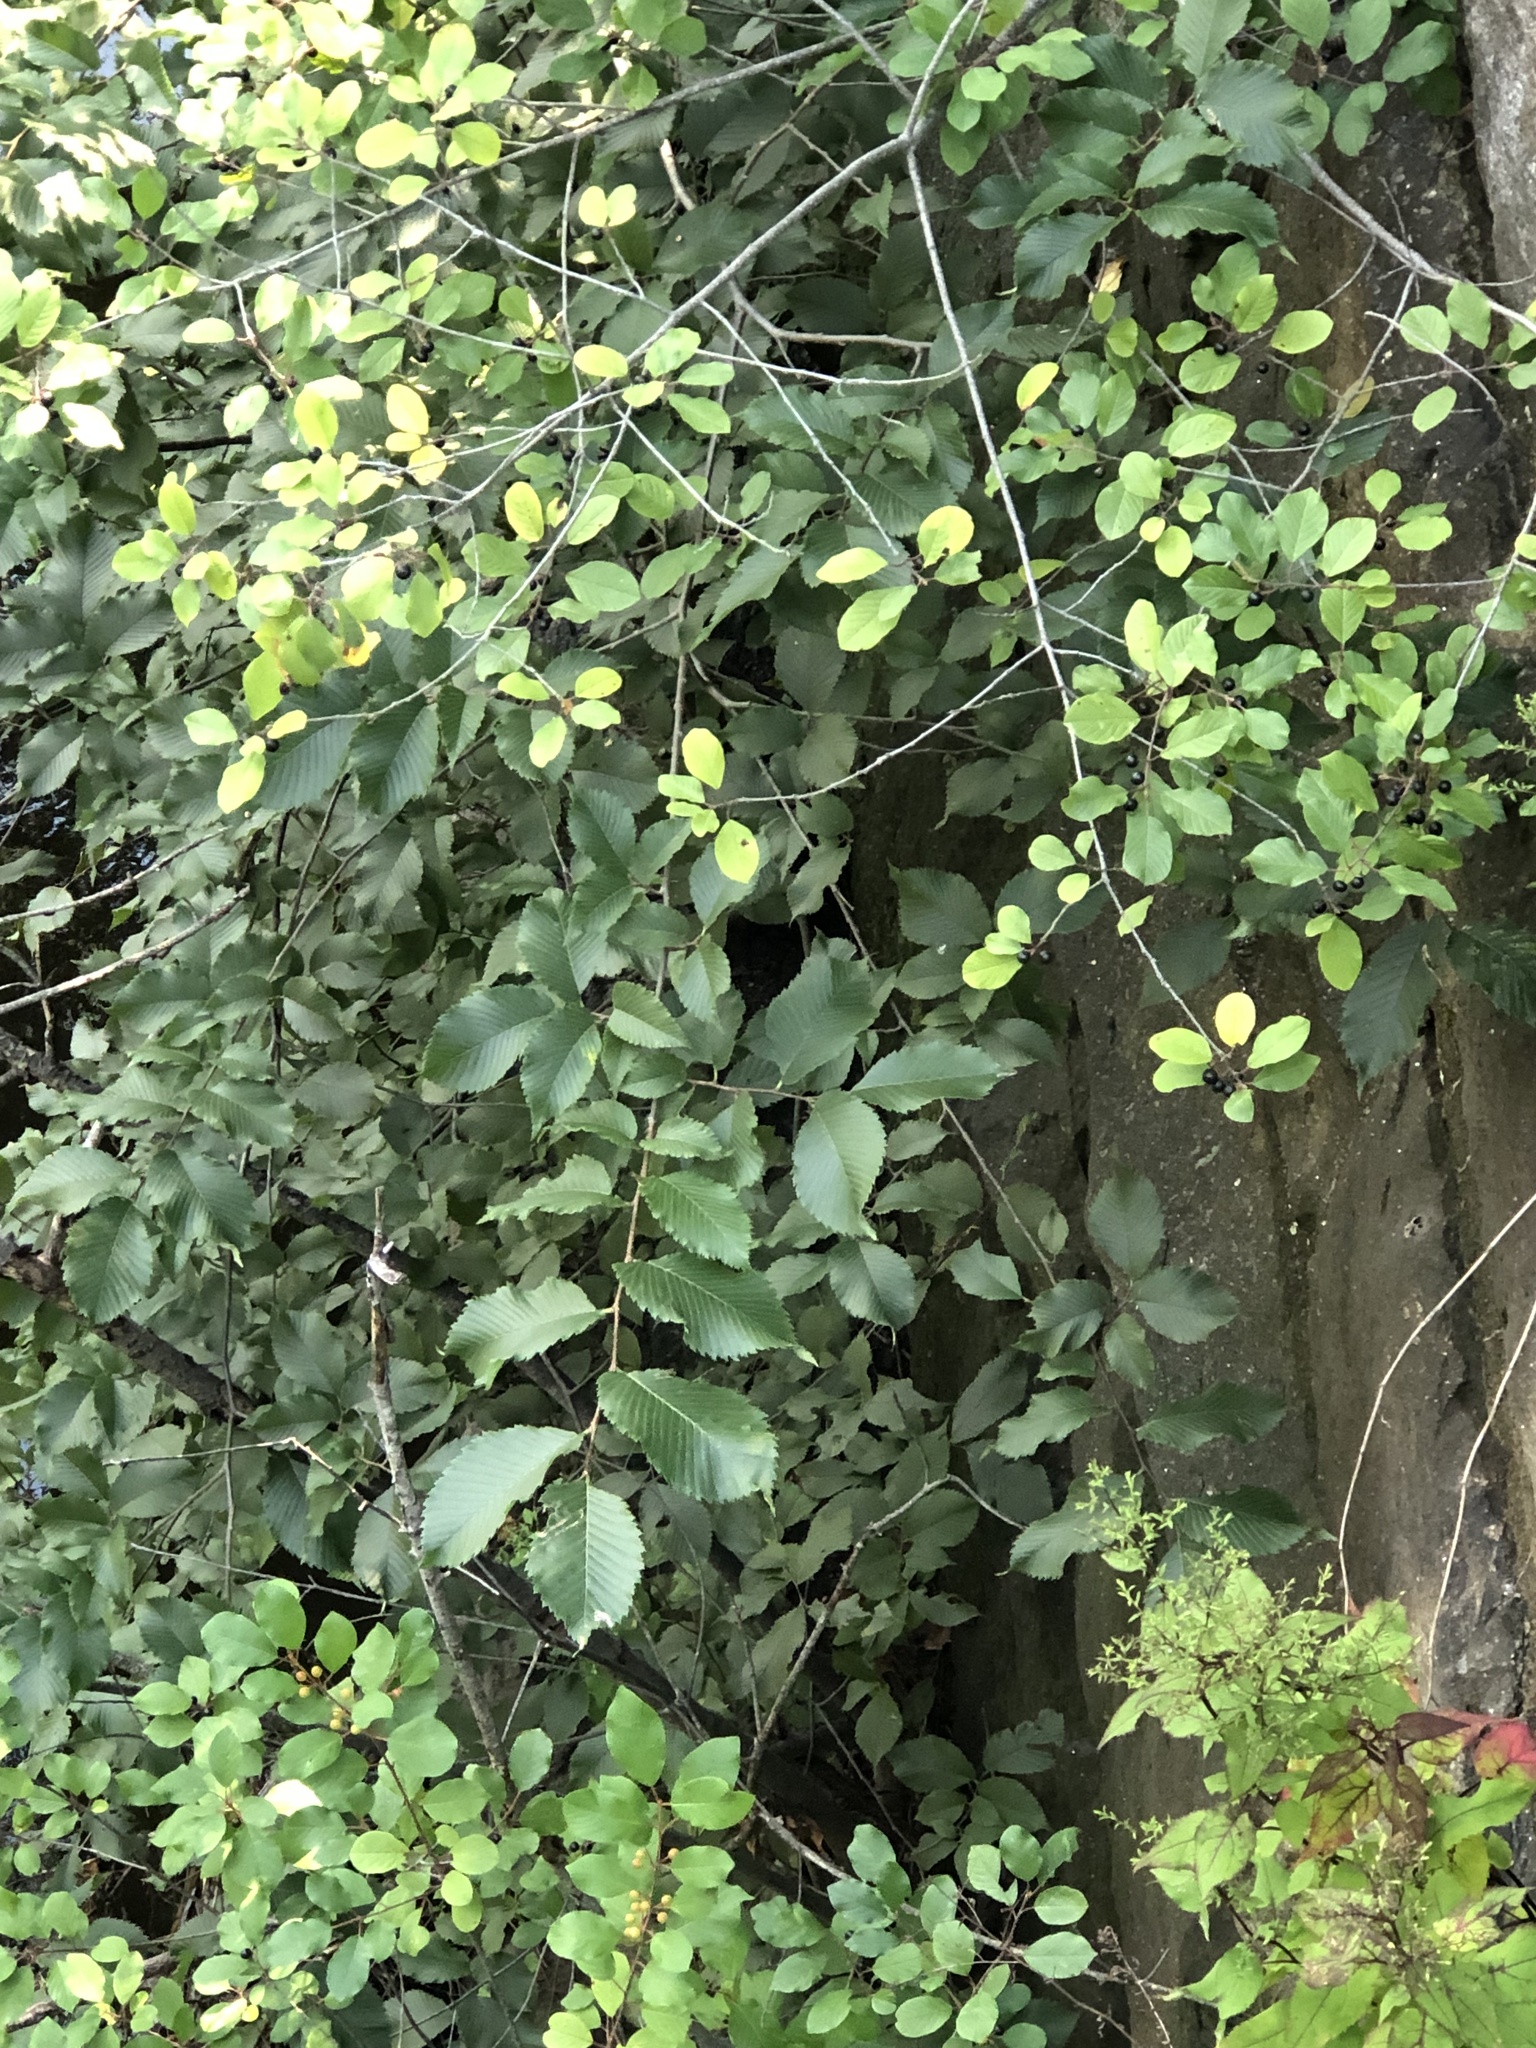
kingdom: Plantae
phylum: Tracheophyta
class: Magnoliopsida
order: Rosales
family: Rhamnaceae
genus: Frangula
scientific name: Frangula alnus
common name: Alder buckthorn
